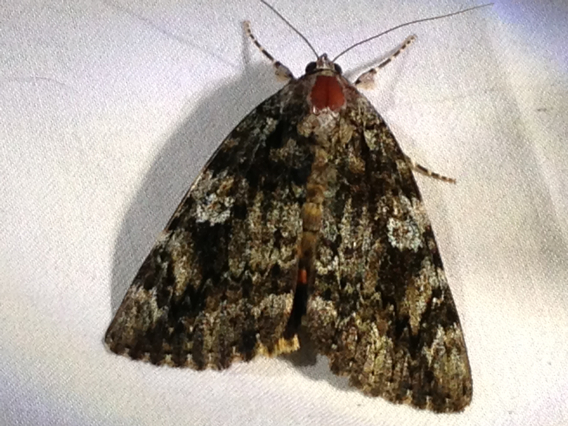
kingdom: Animalia
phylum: Arthropoda
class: Insecta
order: Lepidoptera
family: Erebidae
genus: Catocala
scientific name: Catocala ilia
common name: Ilia underwing
